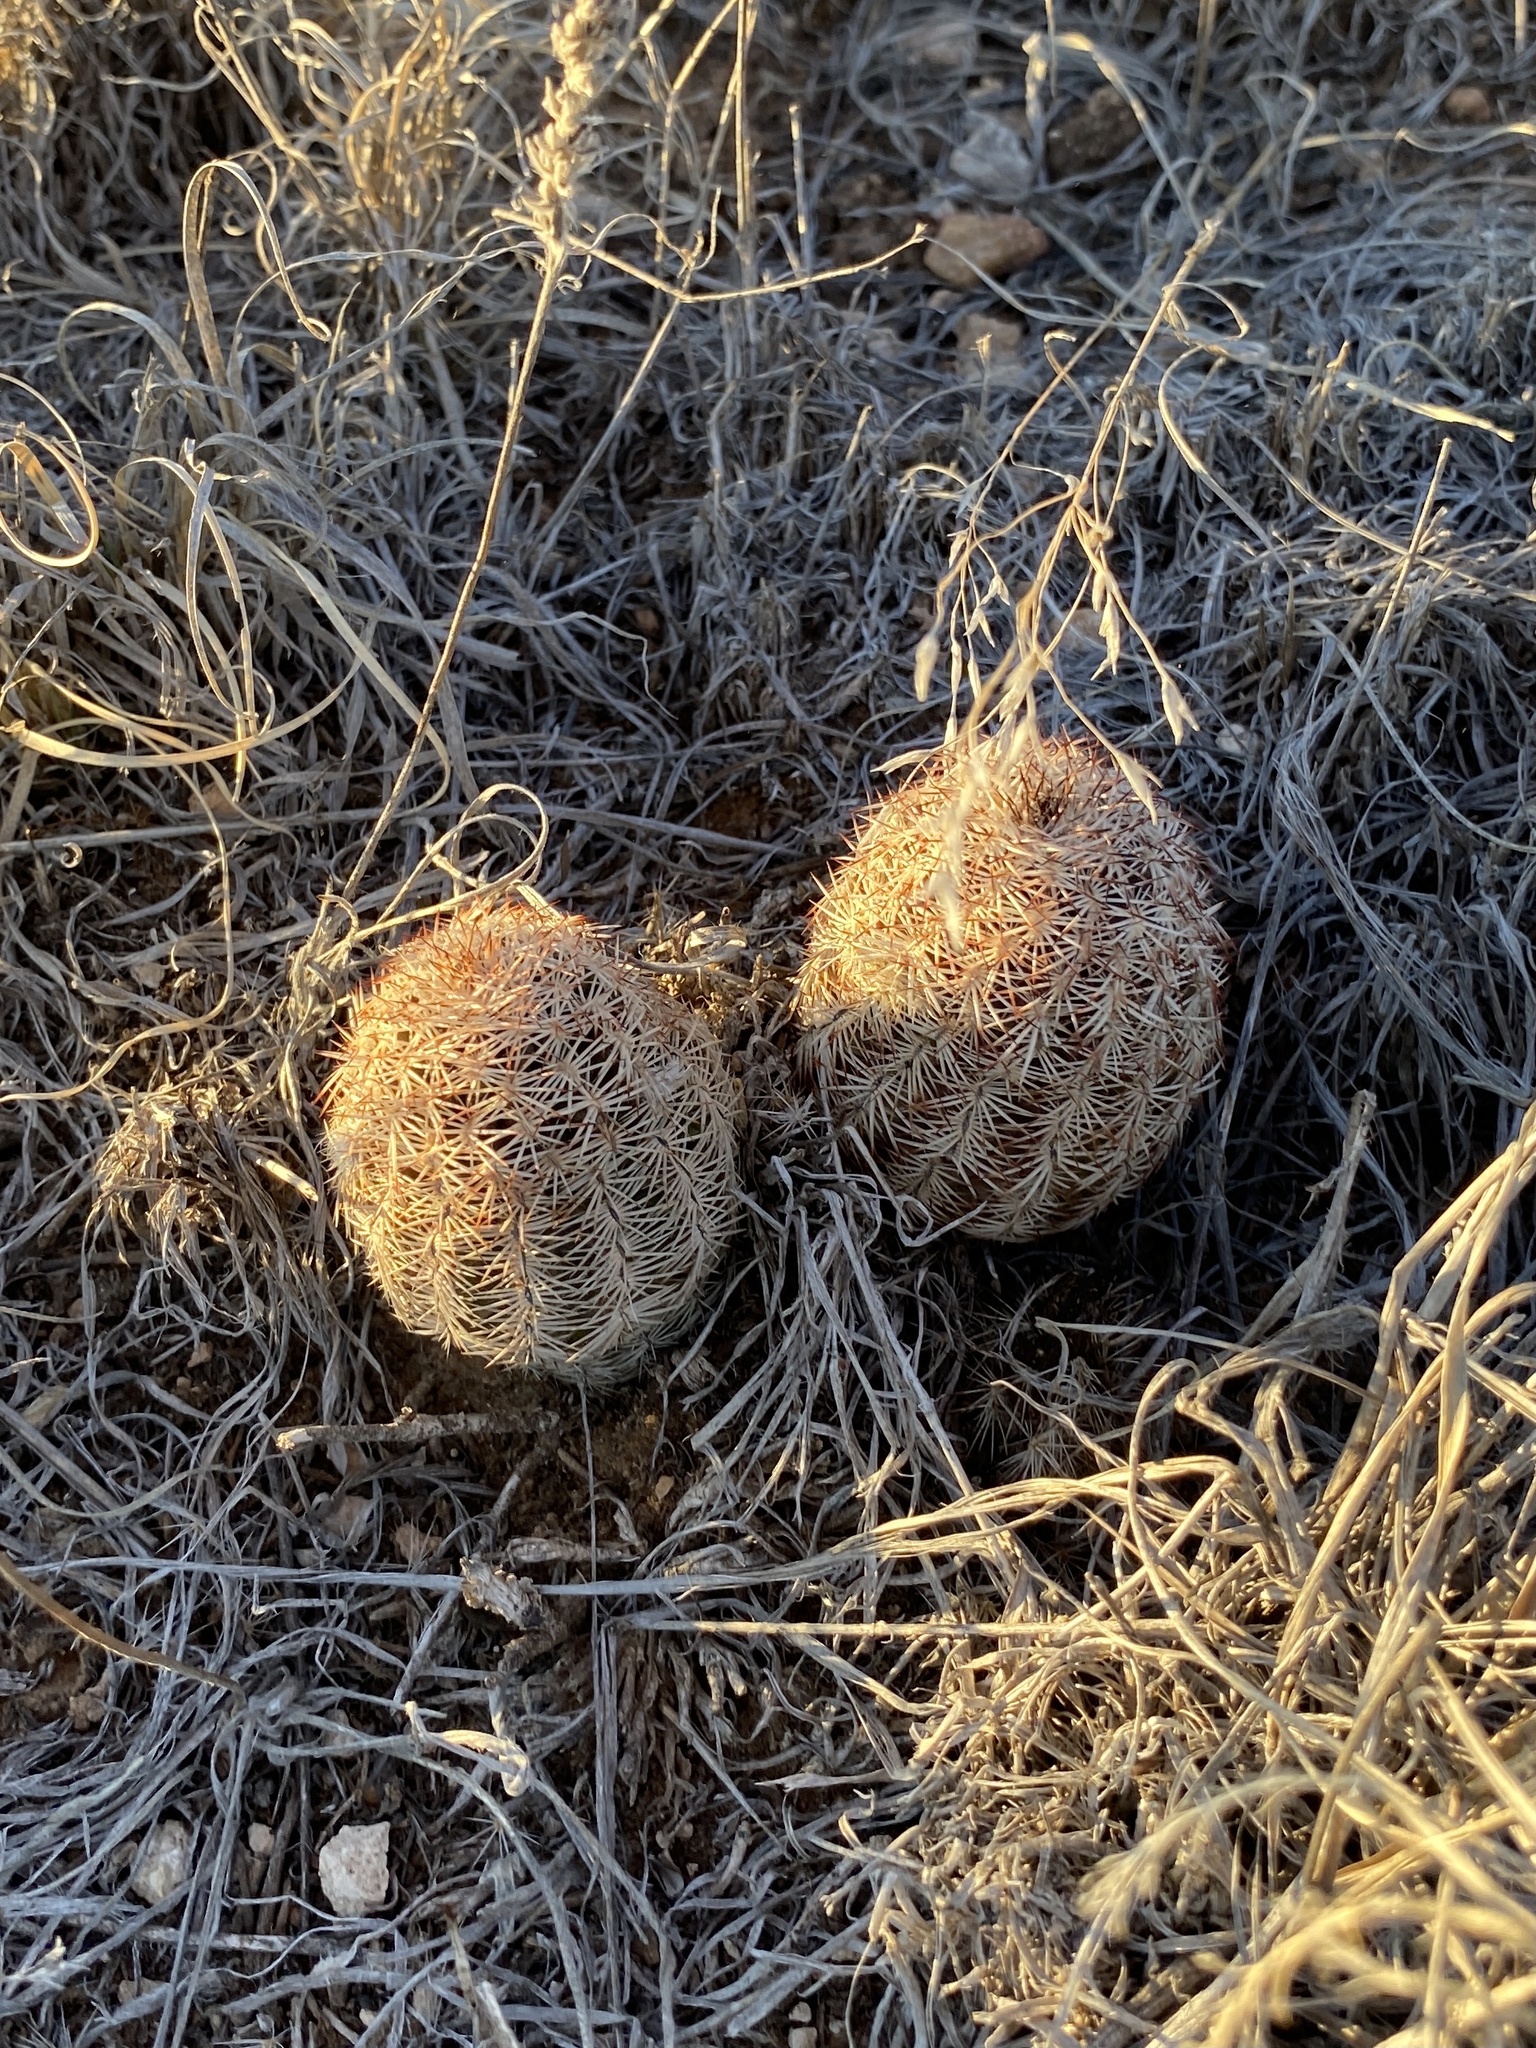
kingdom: Plantae
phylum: Tracheophyta
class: Magnoliopsida
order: Caryophyllales
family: Cactaceae
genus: Echinocereus
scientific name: Echinocereus reichenbachii
